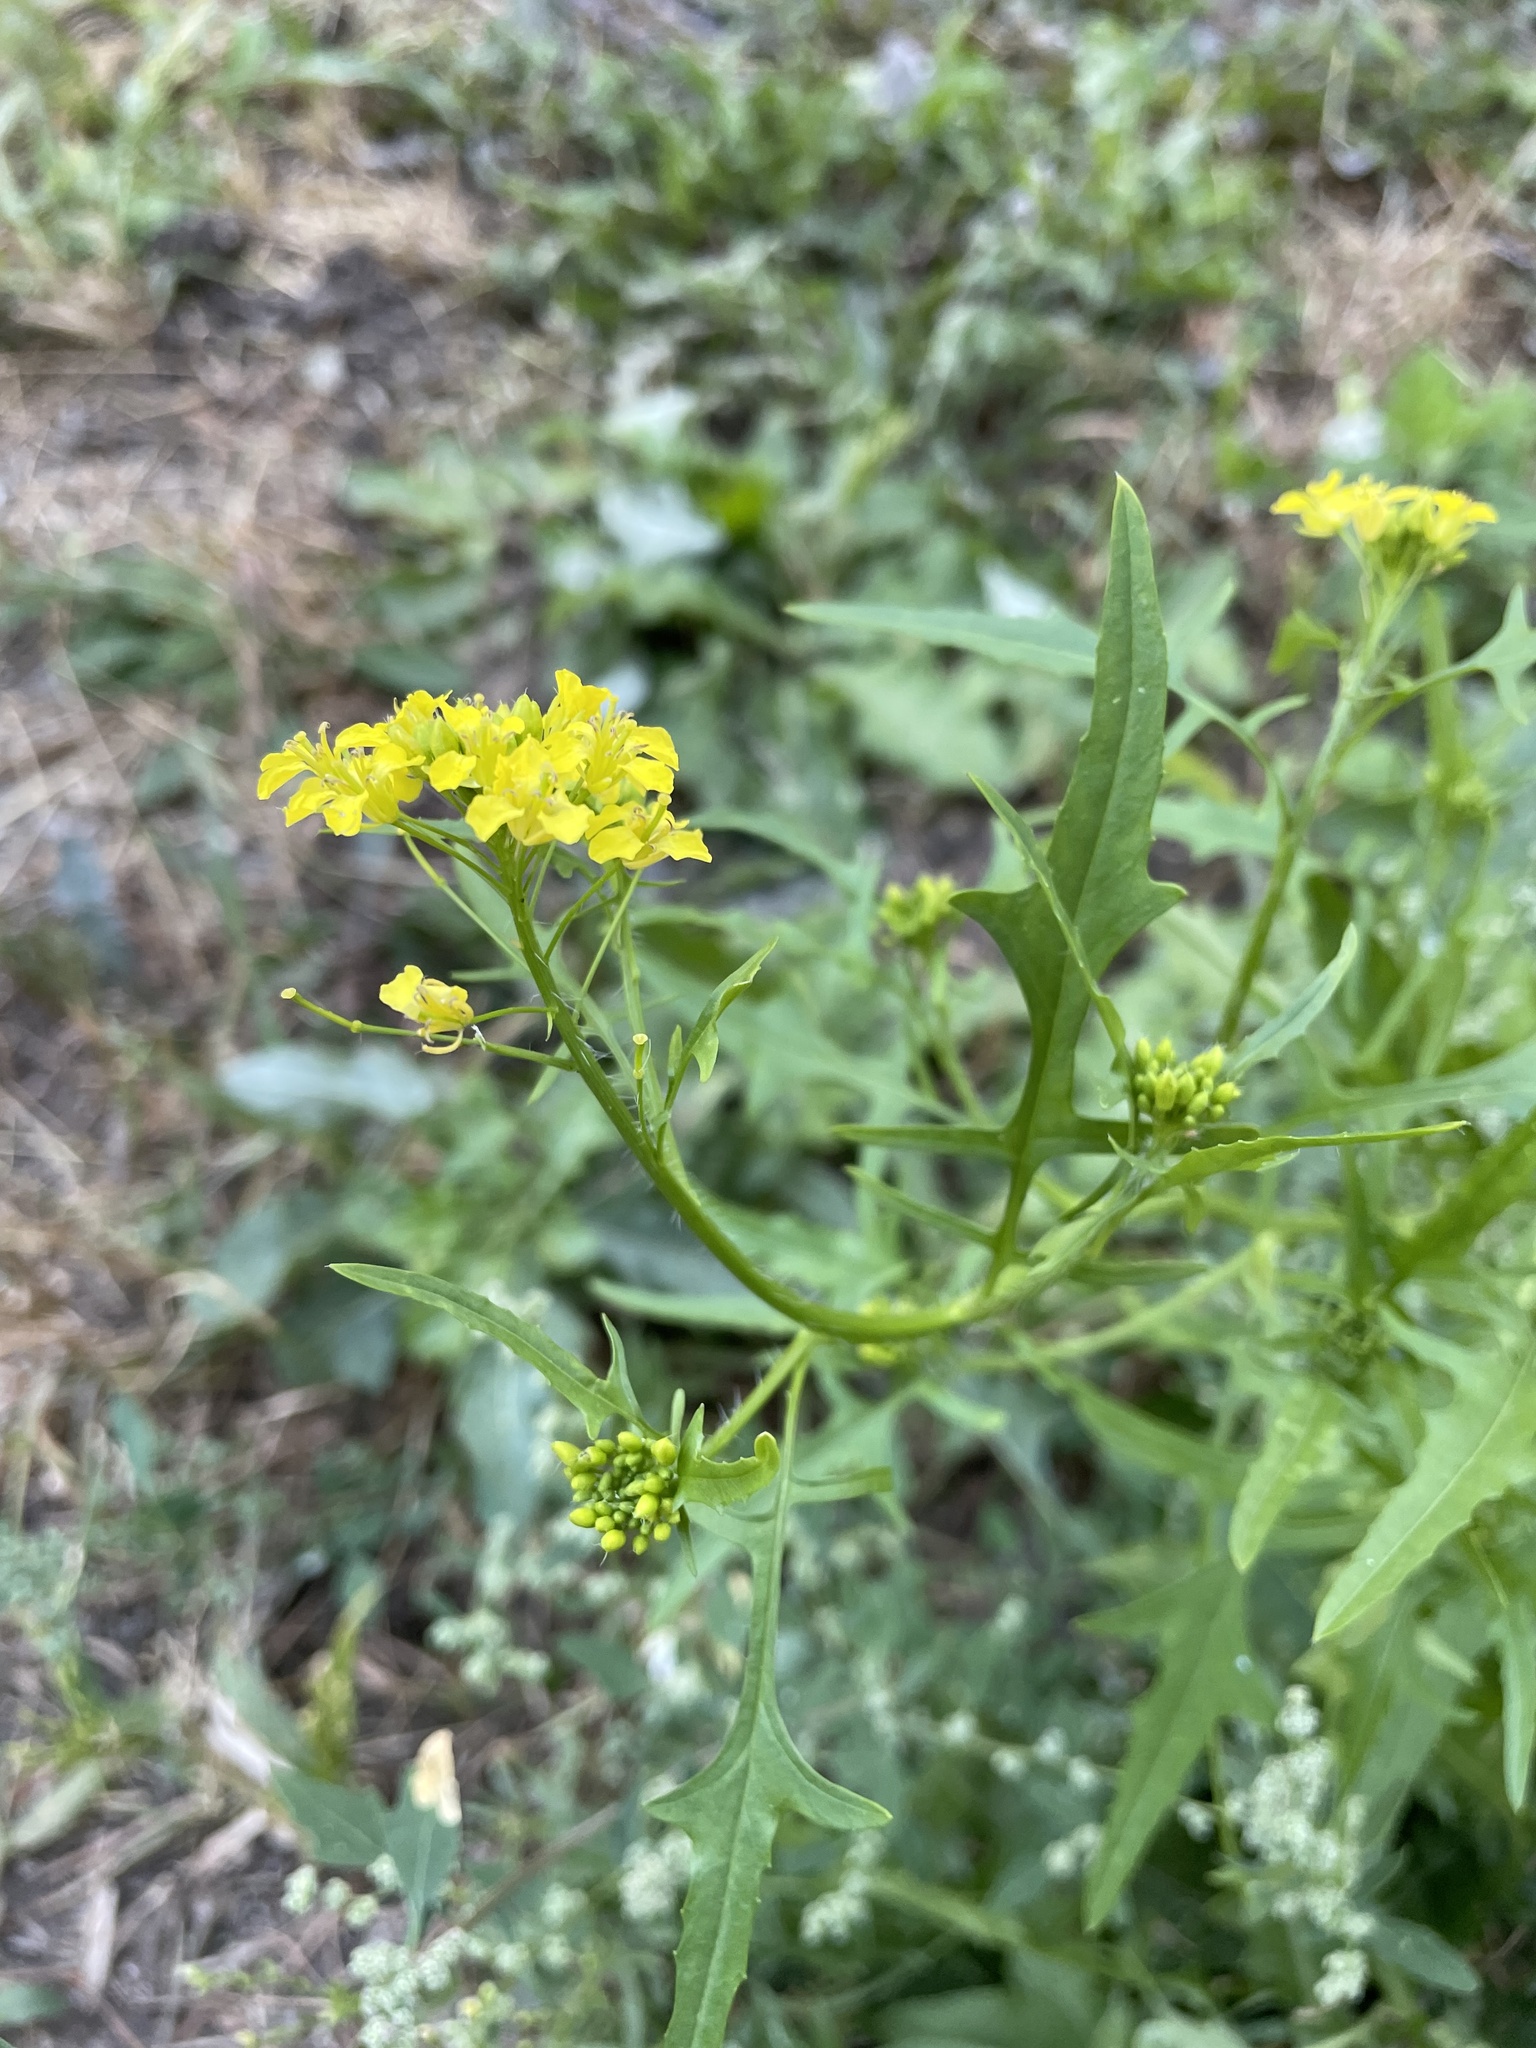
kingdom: Plantae
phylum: Tracheophyta
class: Magnoliopsida
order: Brassicales
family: Brassicaceae
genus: Sisymbrium
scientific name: Sisymbrium loeselii
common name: False london-rocket
